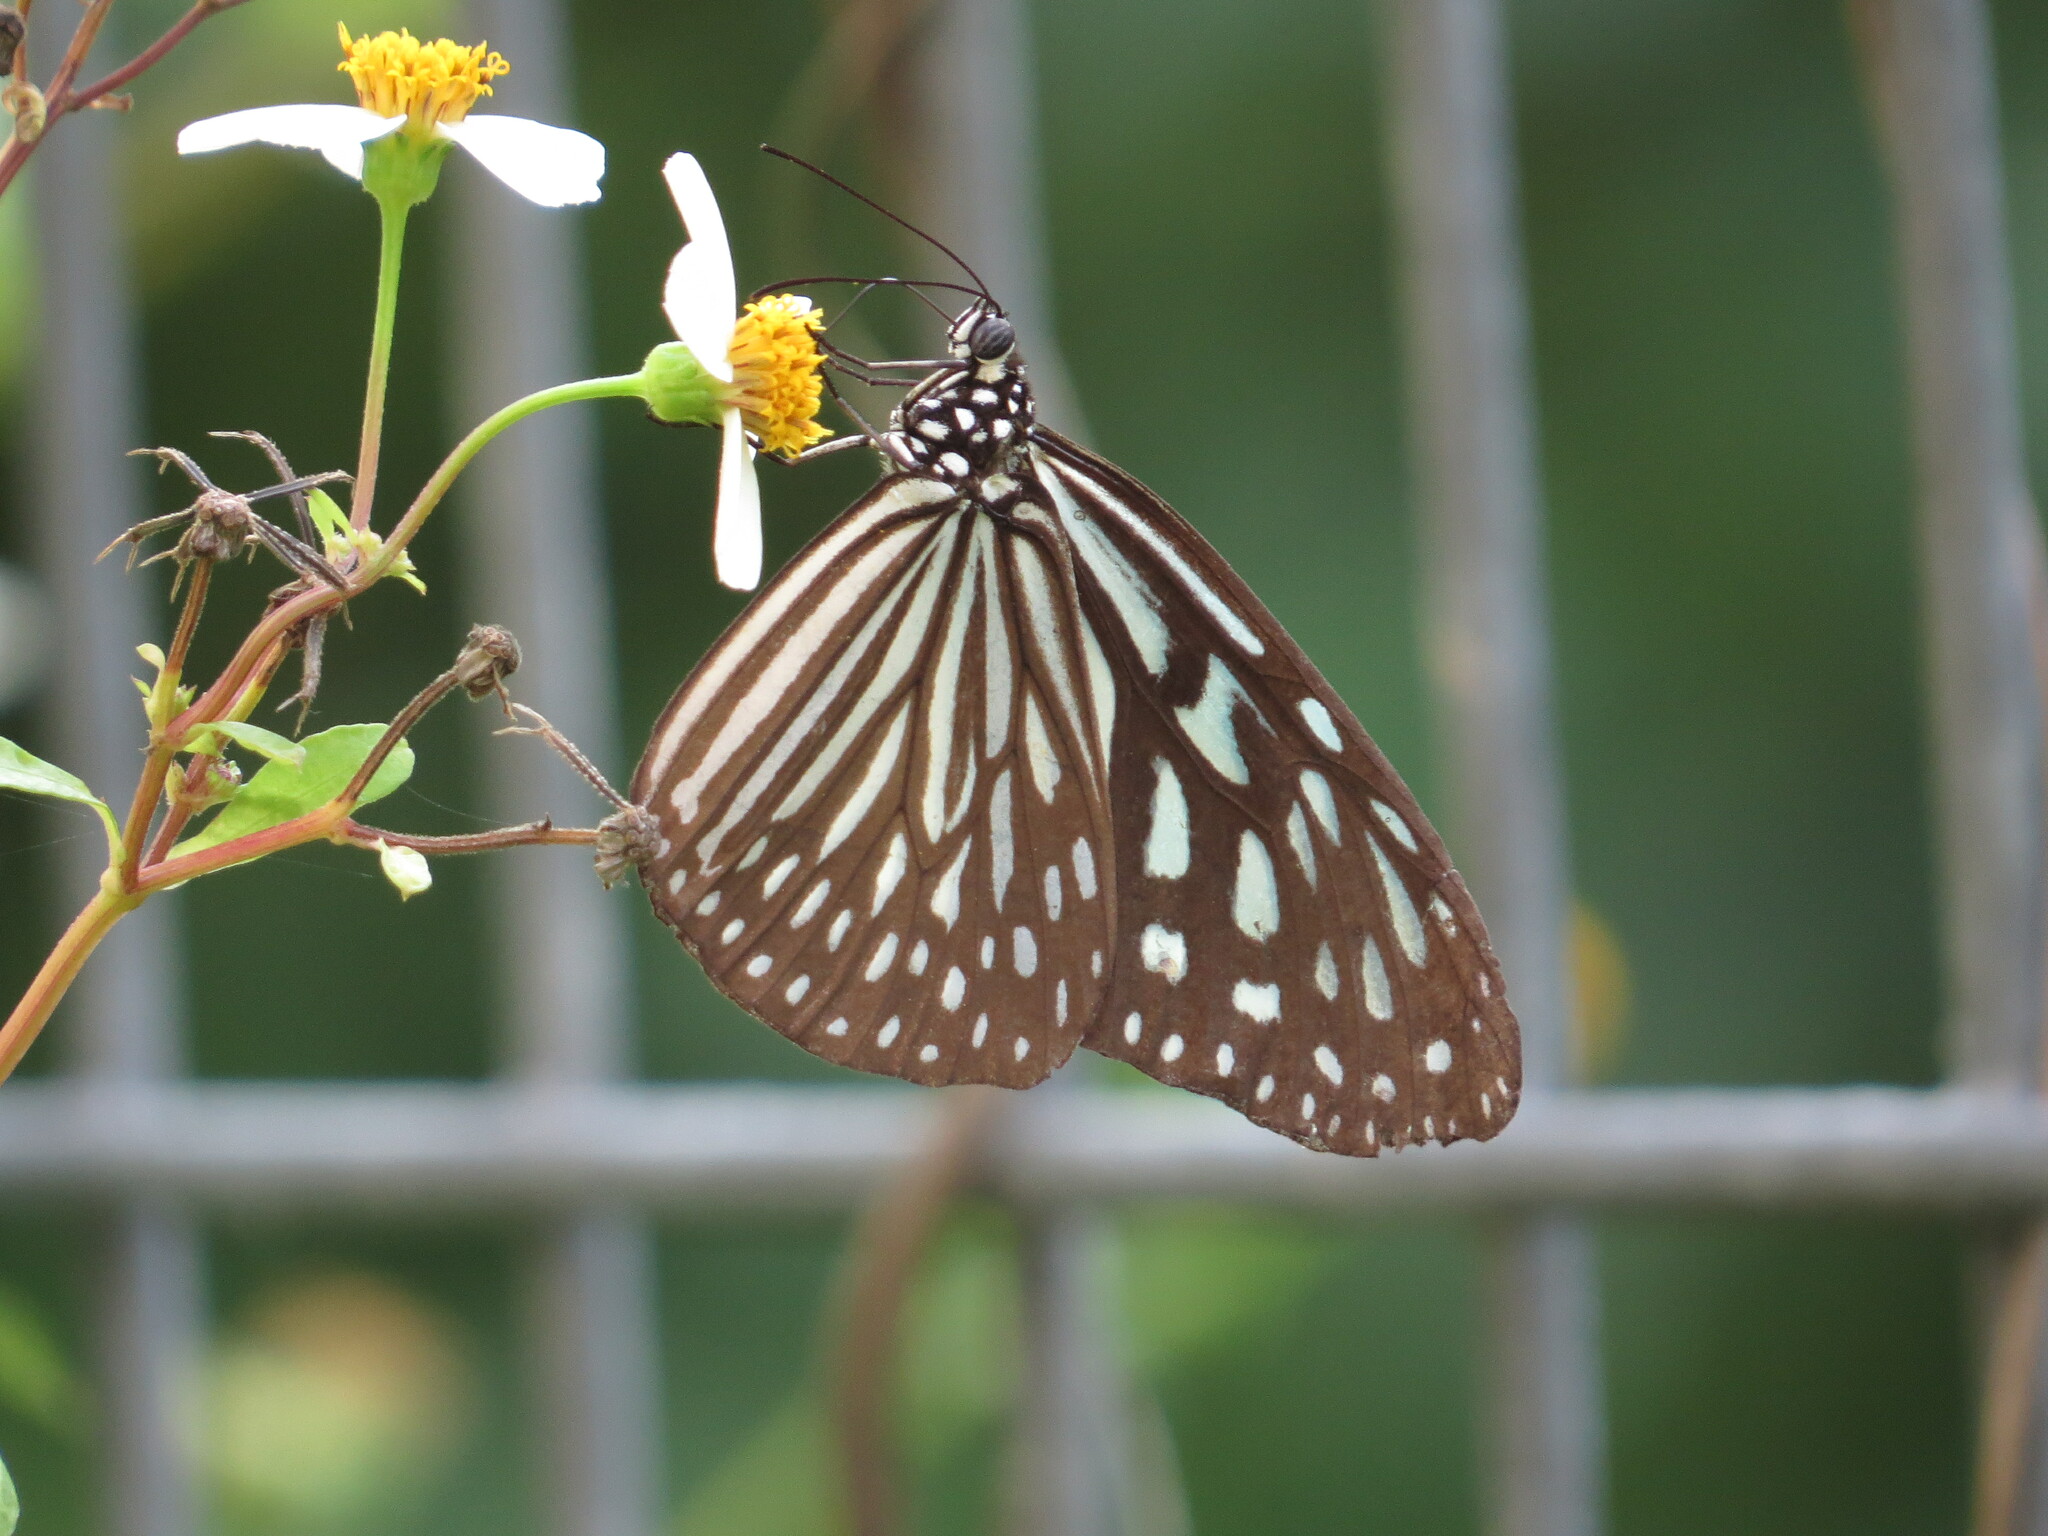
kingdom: Animalia
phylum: Arthropoda
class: Insecta
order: Lepidoptera
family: Nymphalidae
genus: Ideopsis
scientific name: Ideopsis vulgaris
